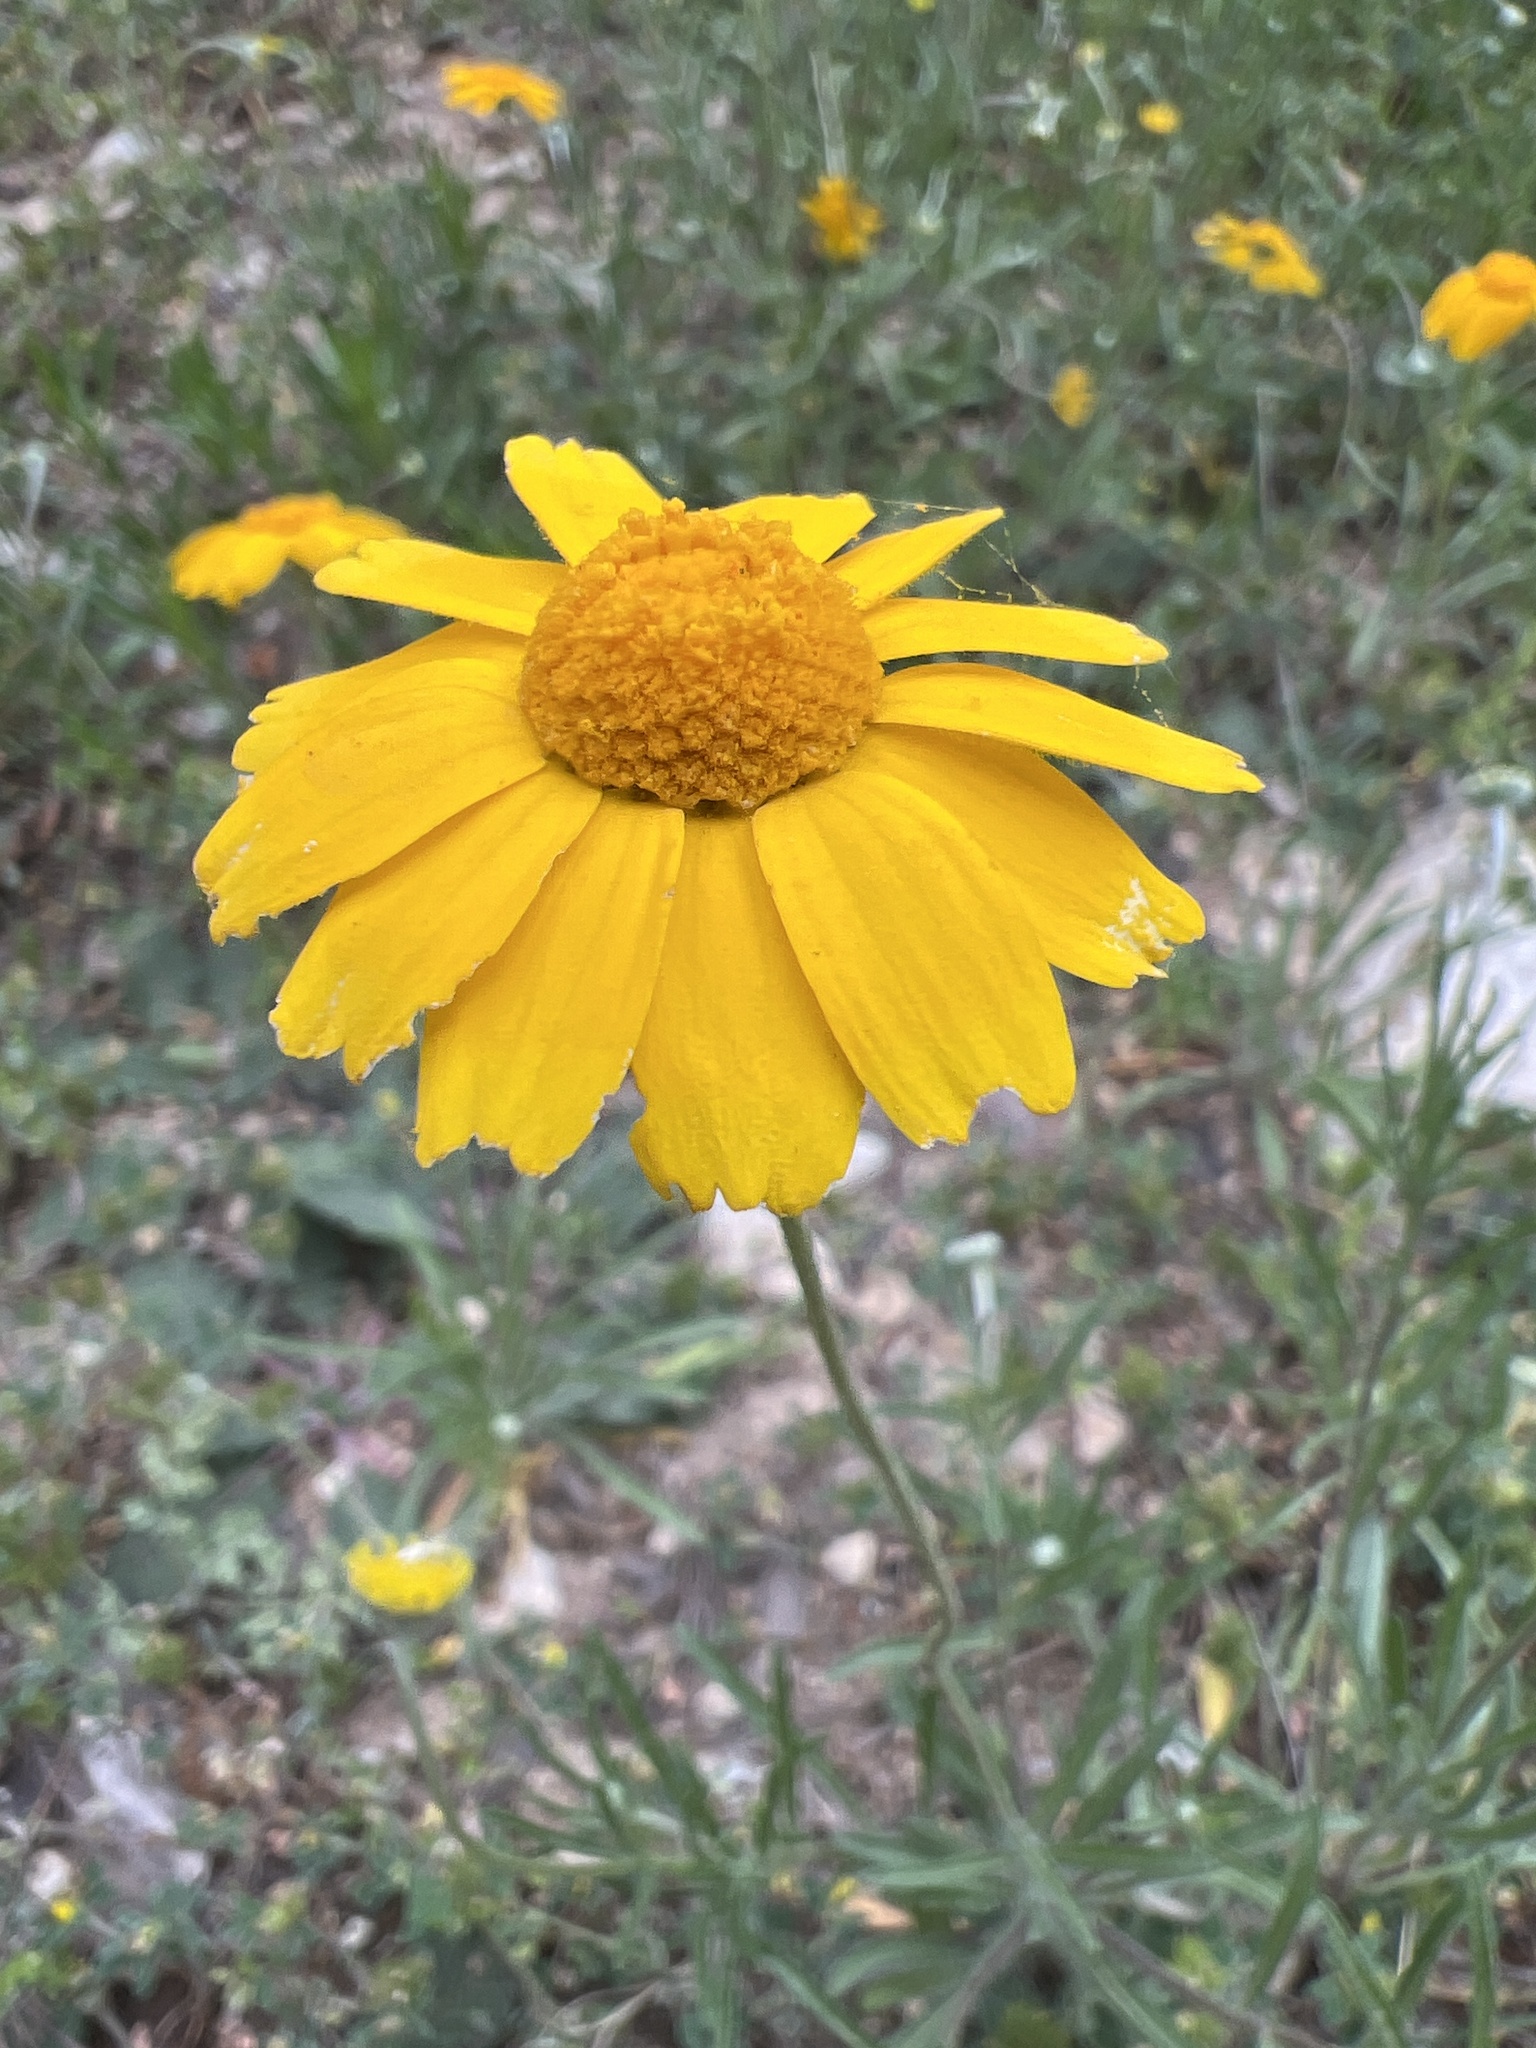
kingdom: Plantae
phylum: Tracheophyta
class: Magnoliopsida
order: Asterales
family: Asteraceae
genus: Tetraneuris
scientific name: Tetraneuris linearifolia
